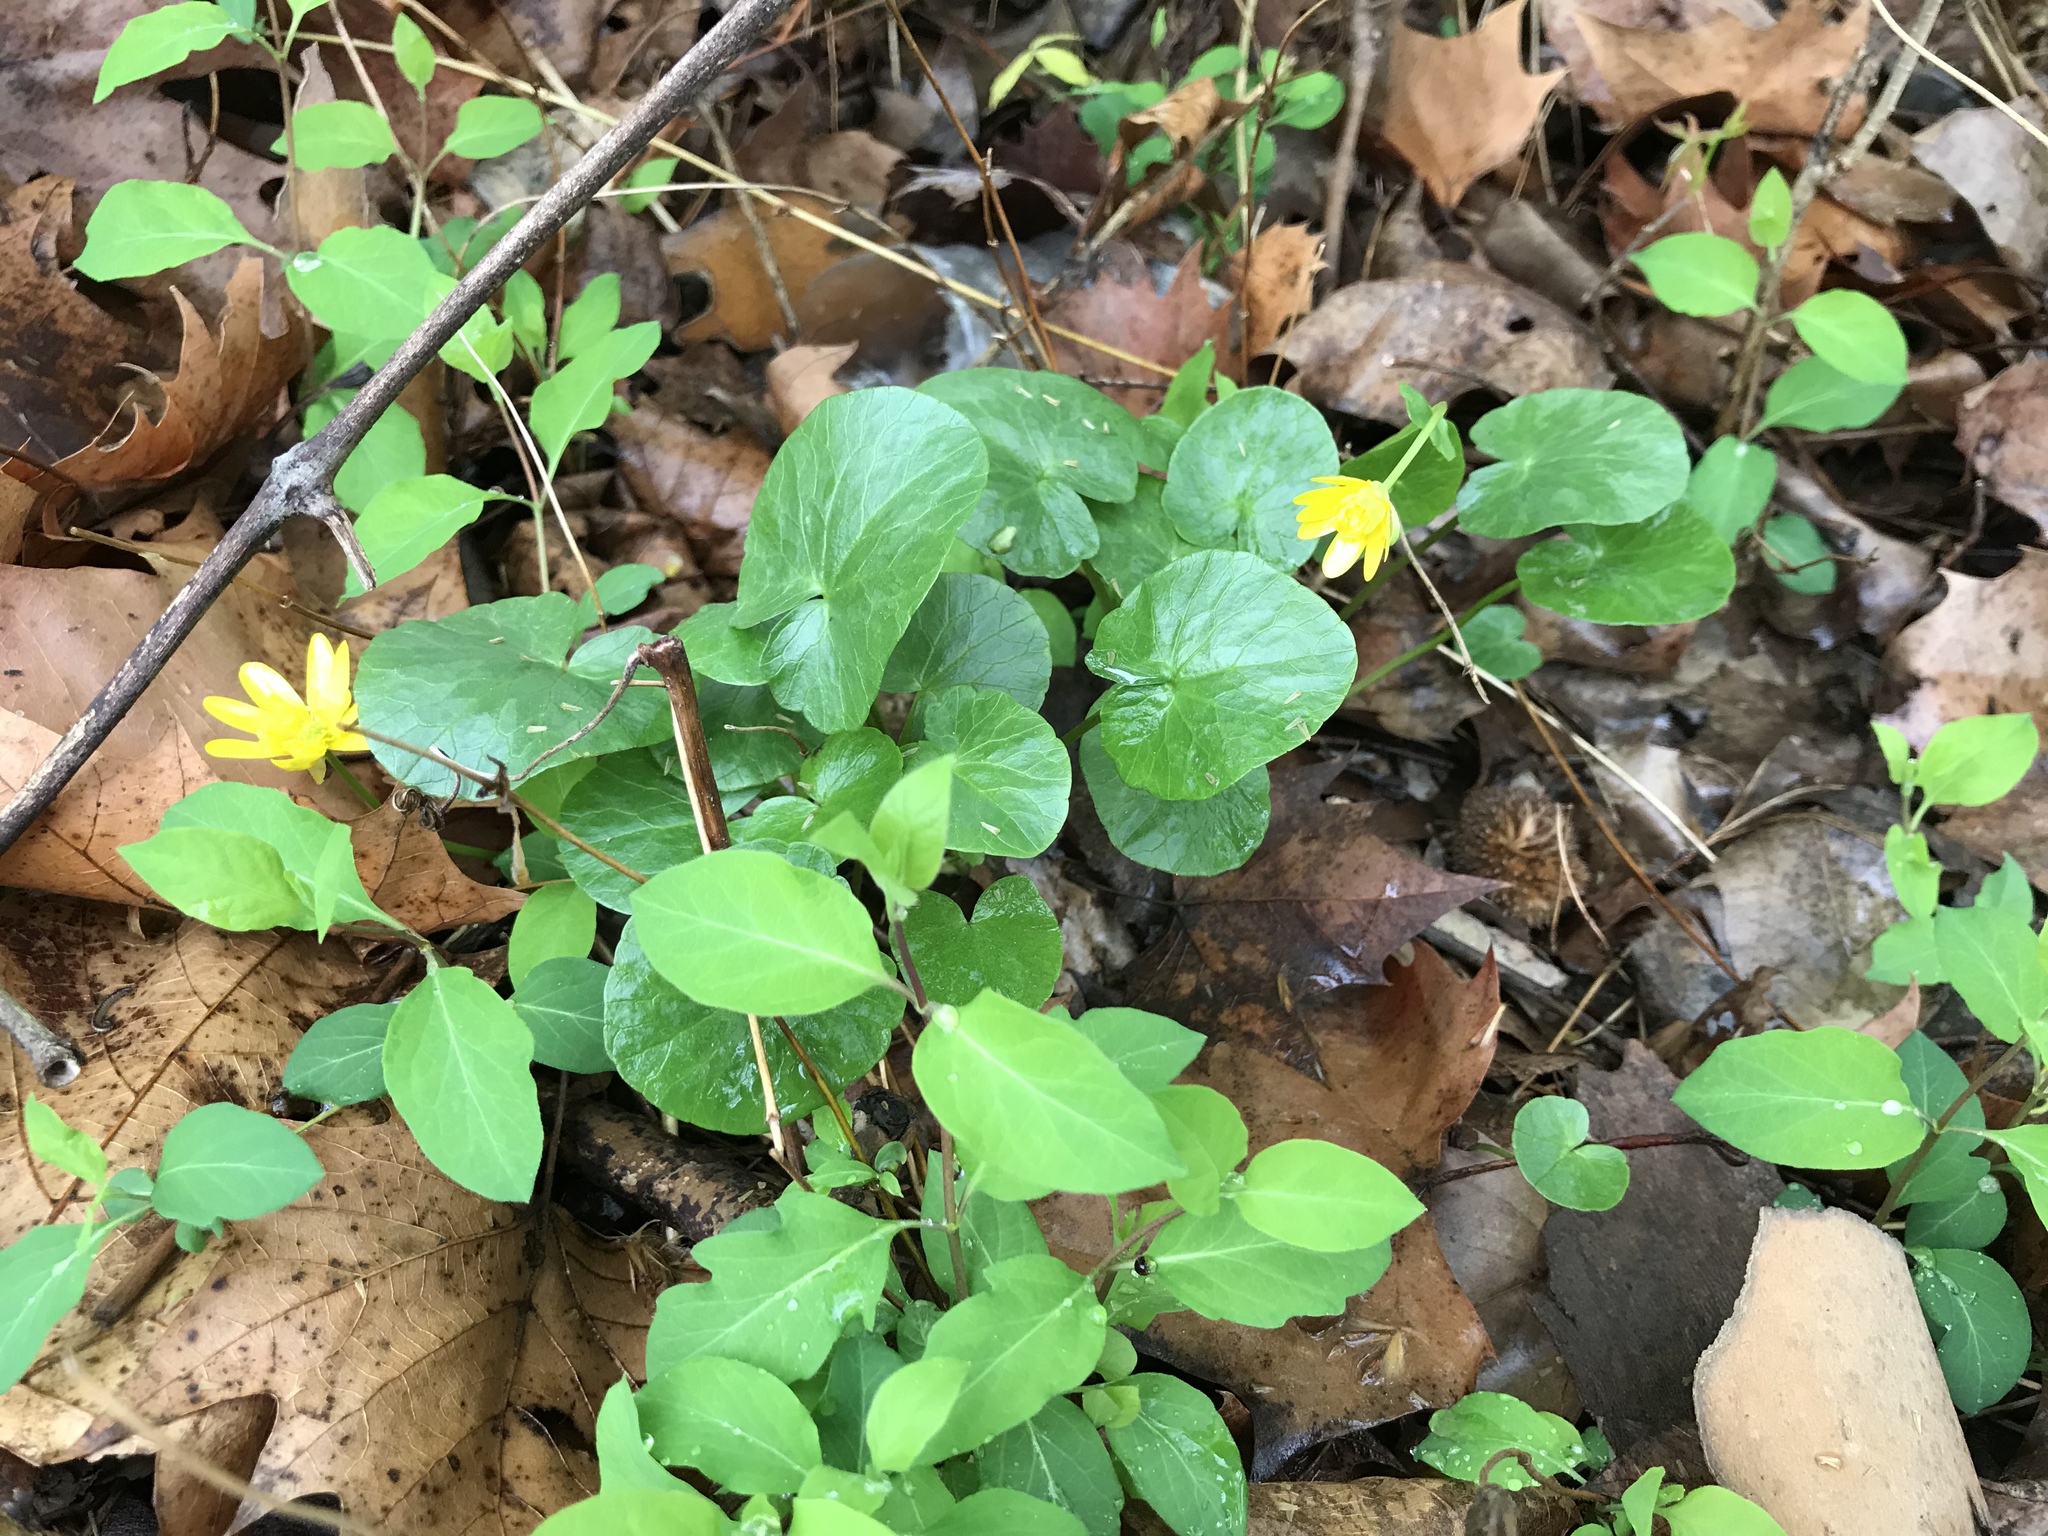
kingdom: Plantae
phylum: Tracheophyta
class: Magnoliopsida
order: Ranunculales
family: Ranunculaceae
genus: Ficaria
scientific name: Ficaria verna
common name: Lesser celandine
